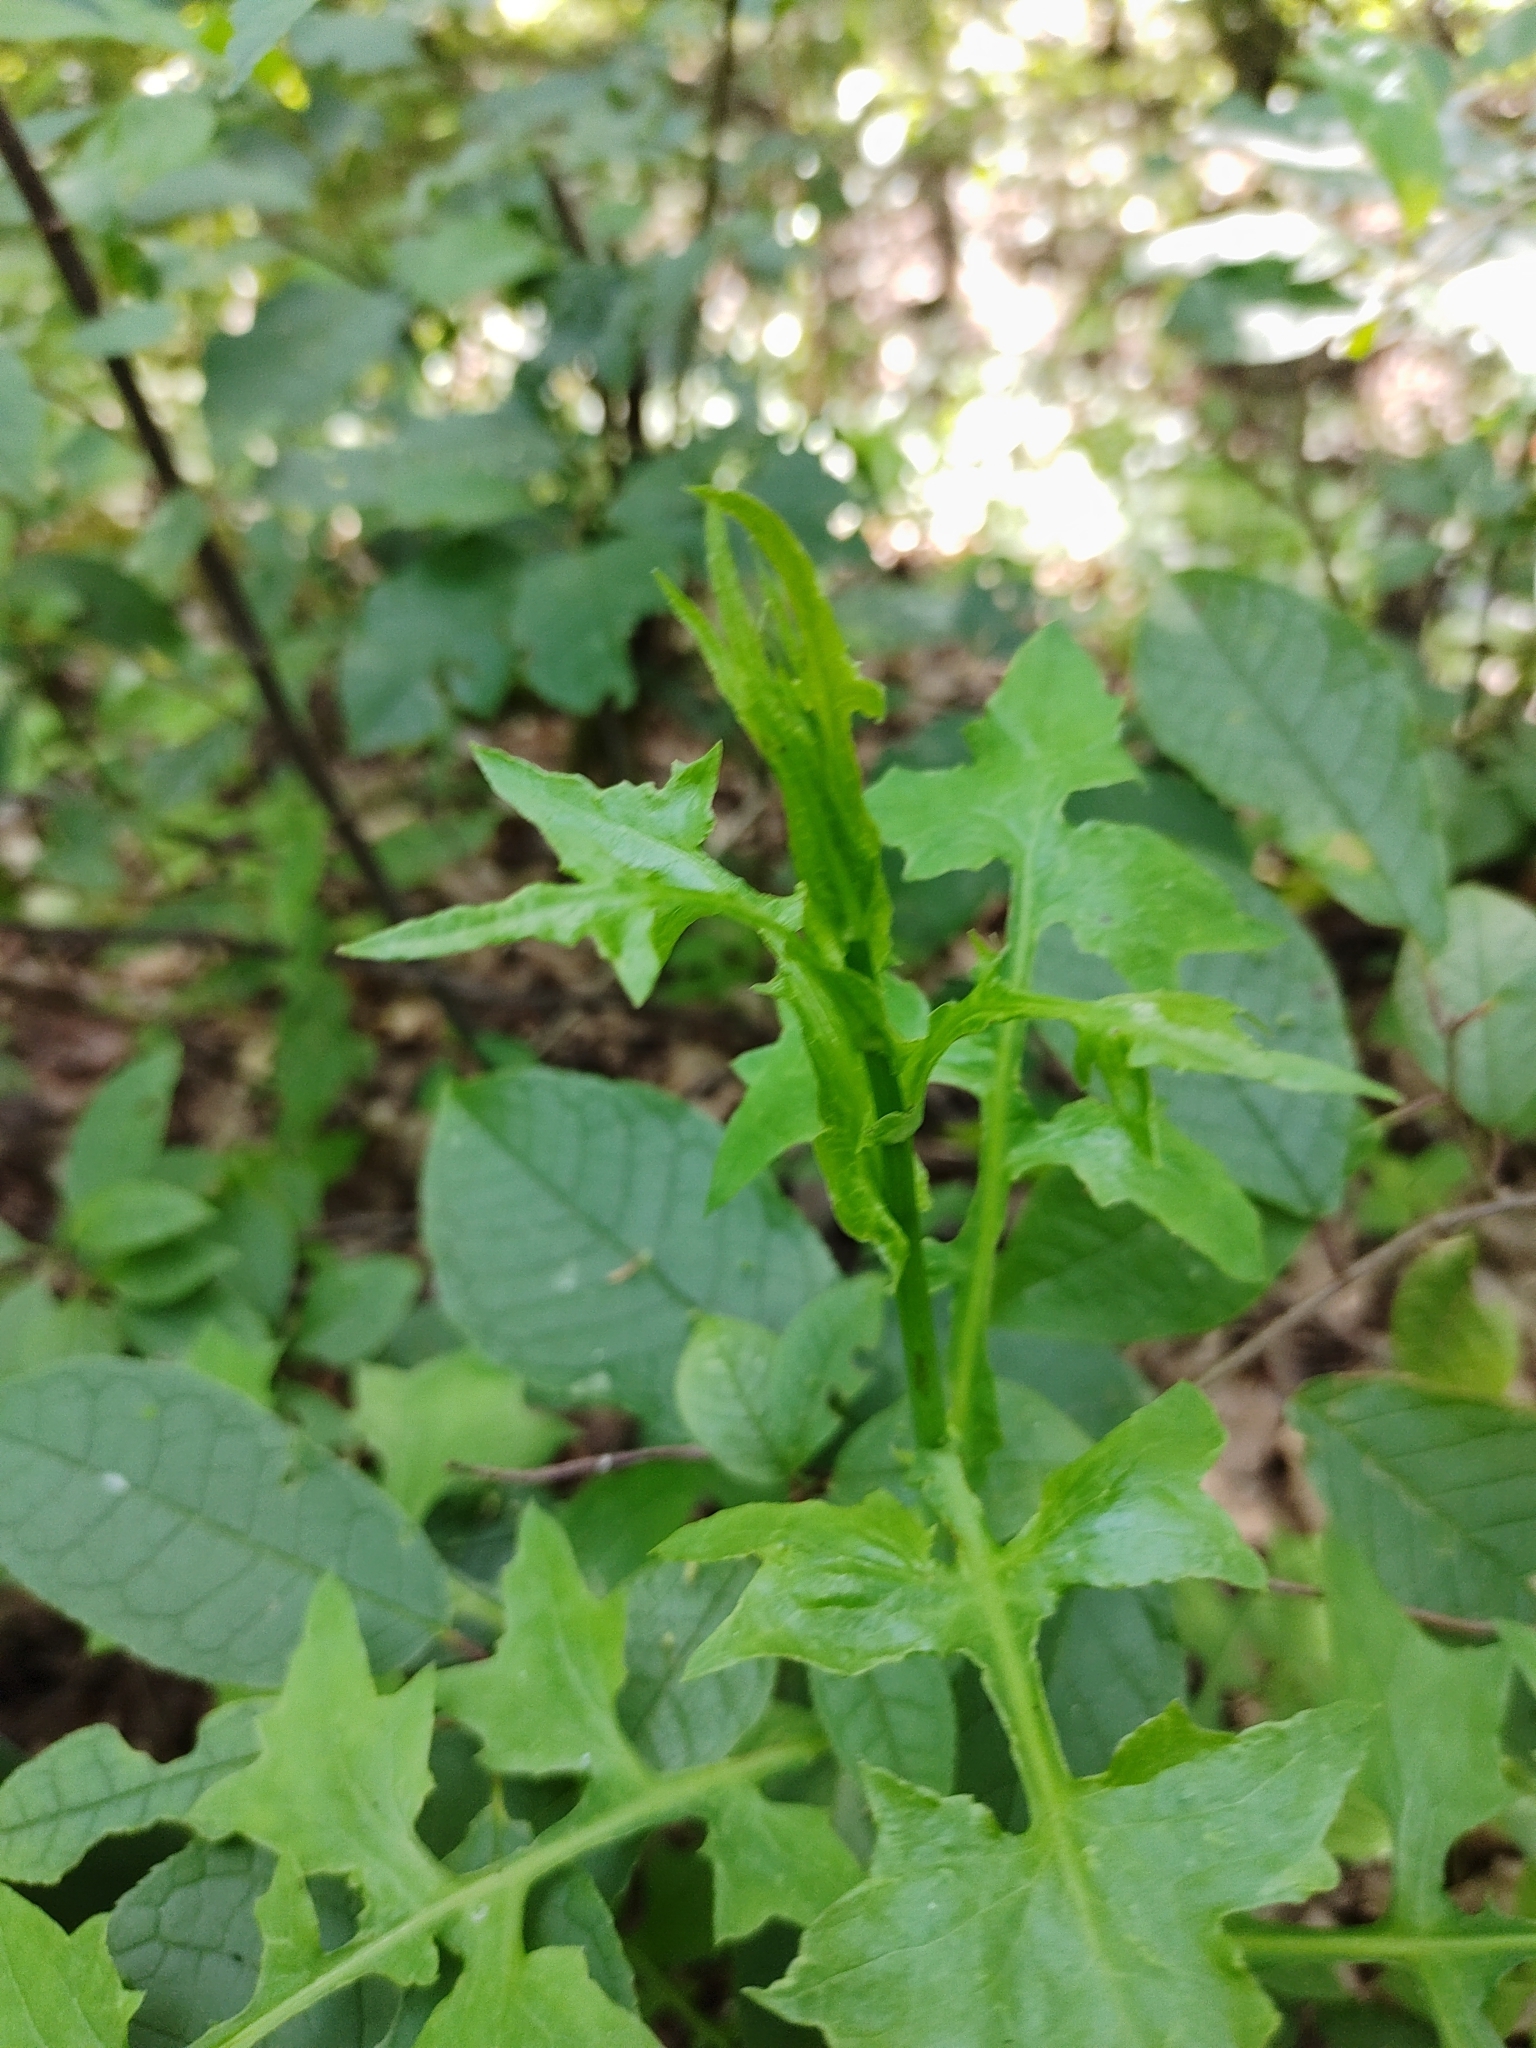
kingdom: Plantae
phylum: Tracheophyta
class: Magnoliopsida
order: Asterales
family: Asteraceae
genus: Mycelis
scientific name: Mycelis muralis
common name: Wall lettuce
